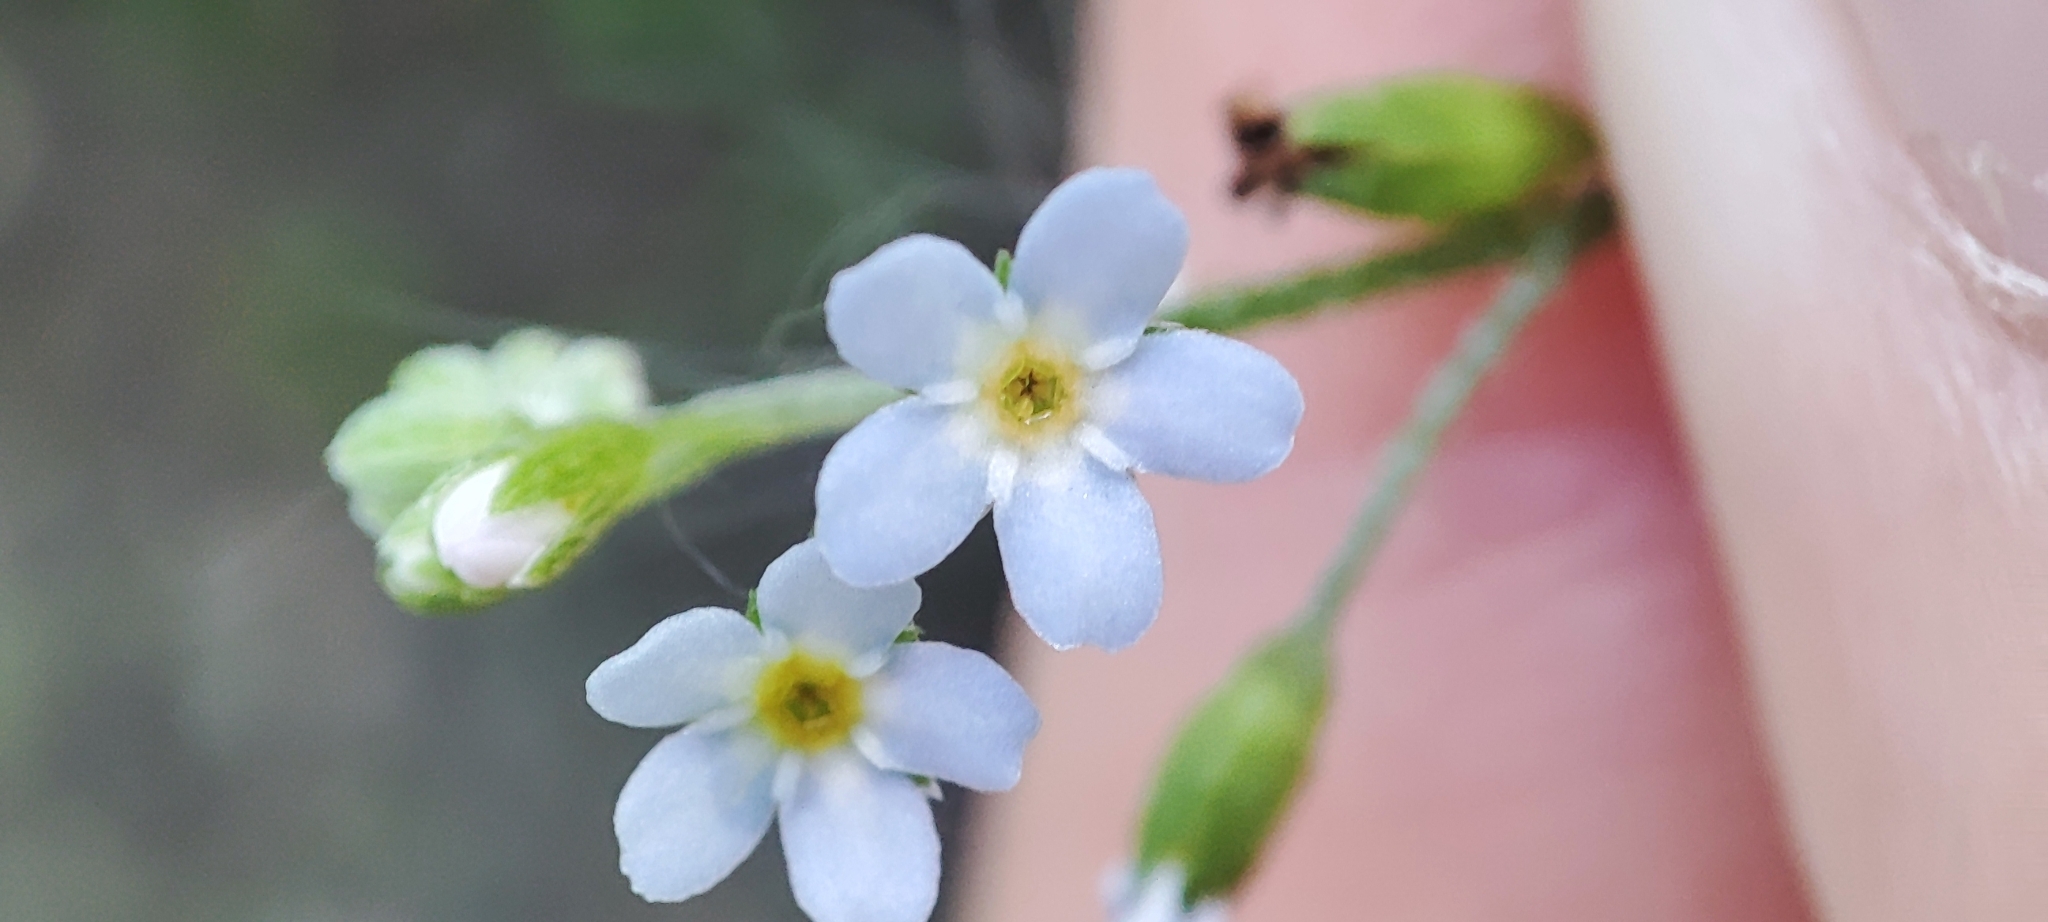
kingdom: Plantae
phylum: Tracheophyta
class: Magnoliopsida
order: Boraginales
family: Boraginaceae
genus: Myosotis
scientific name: Myosotis laxa
